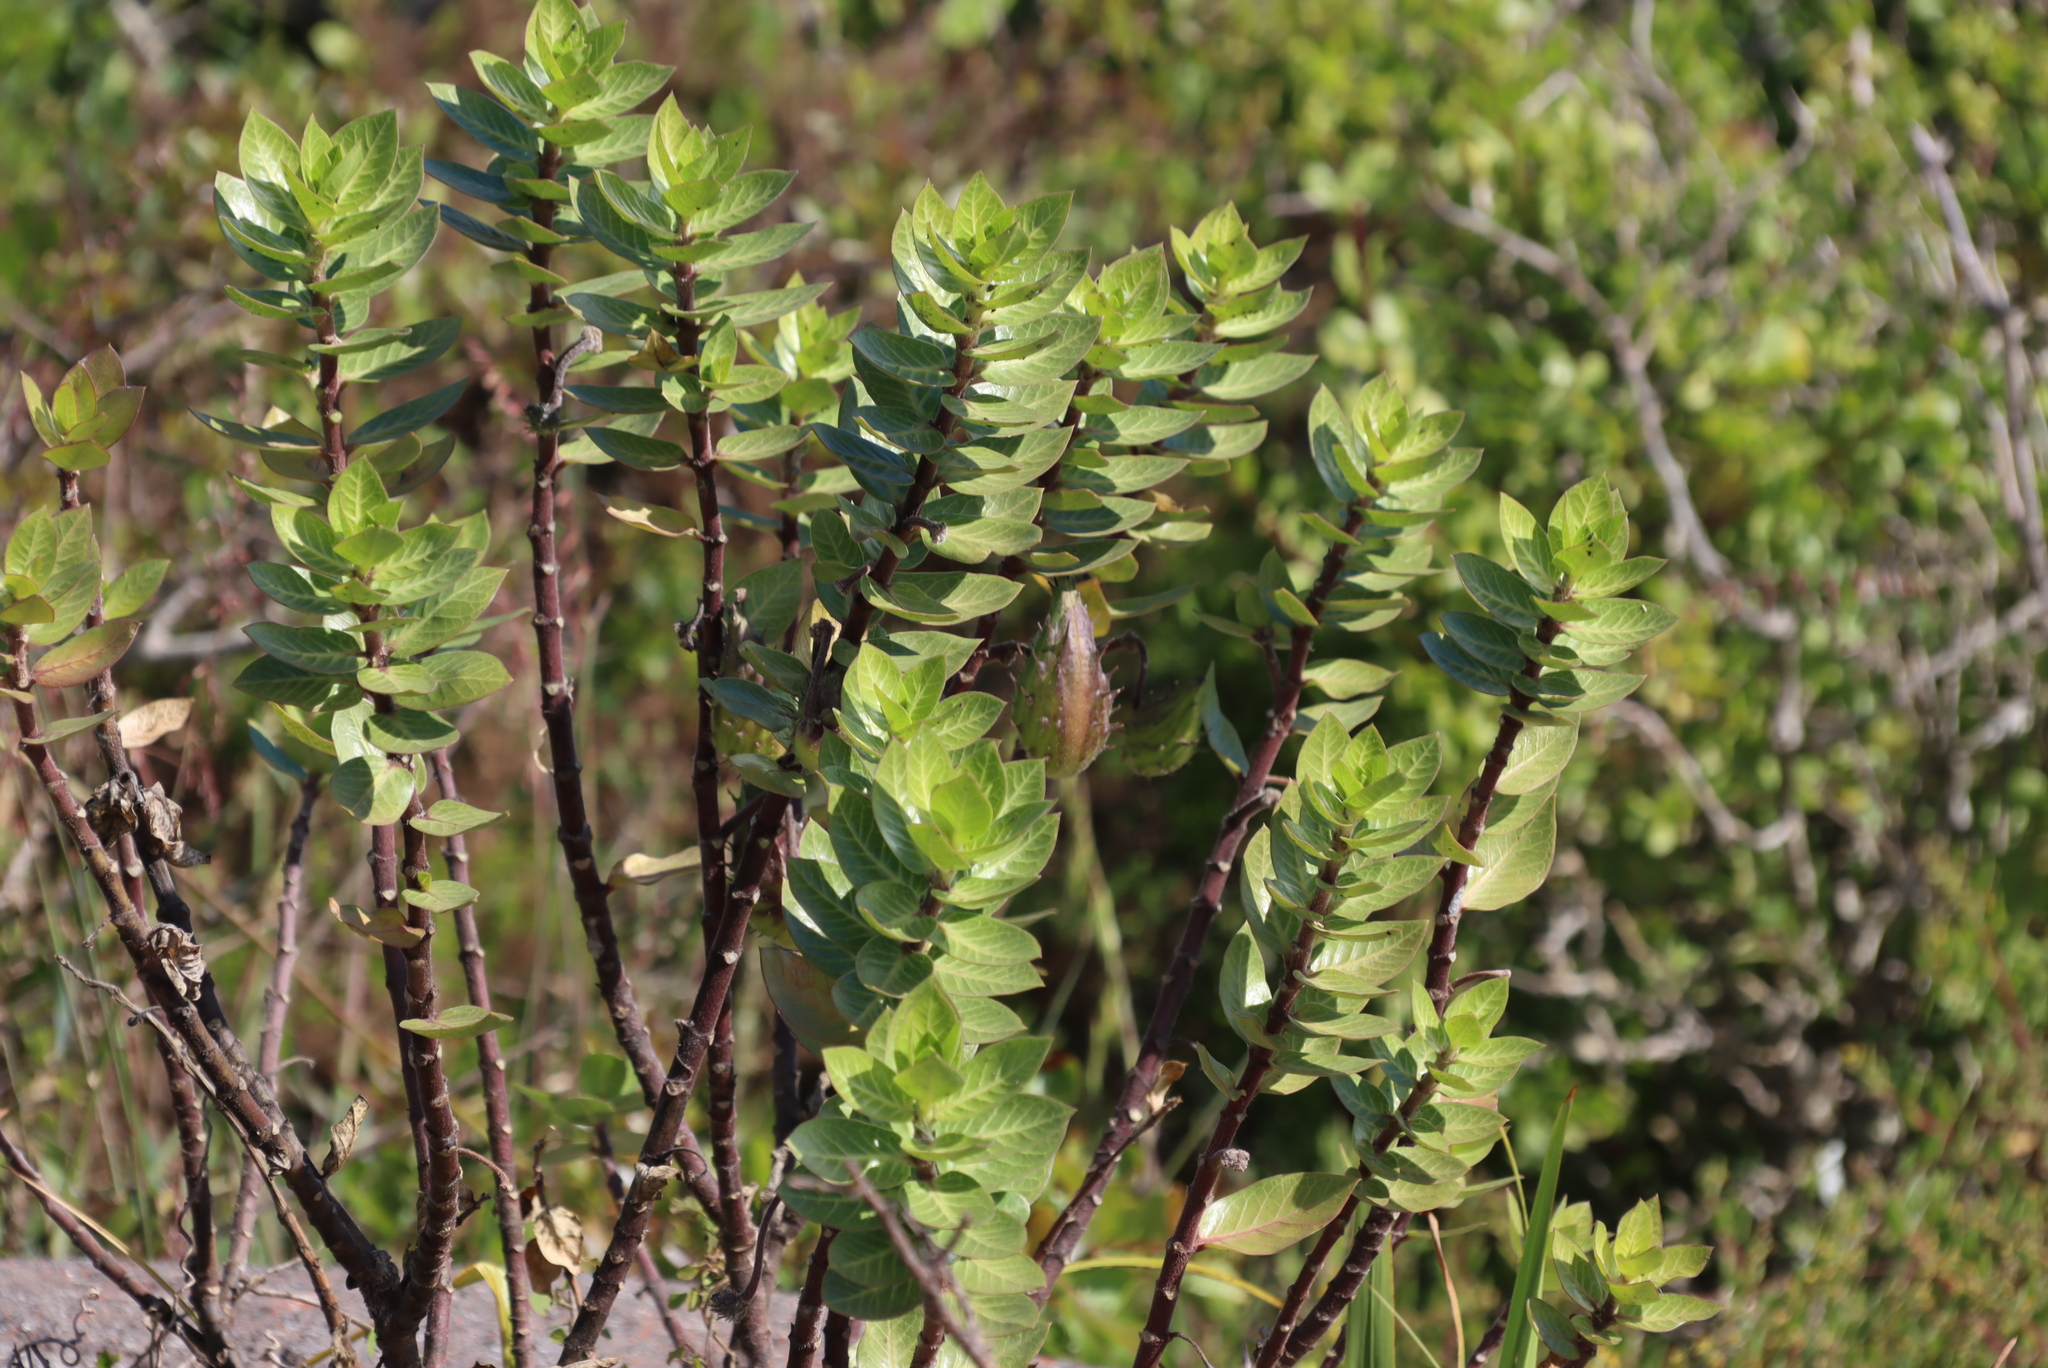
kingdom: Plantae
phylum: Tracheophyta
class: Magnoliopsida
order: Gentianales
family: Apocynaceae
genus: Gomphocarpus
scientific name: Gomphocarpus cancellatus
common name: Wild cotton
